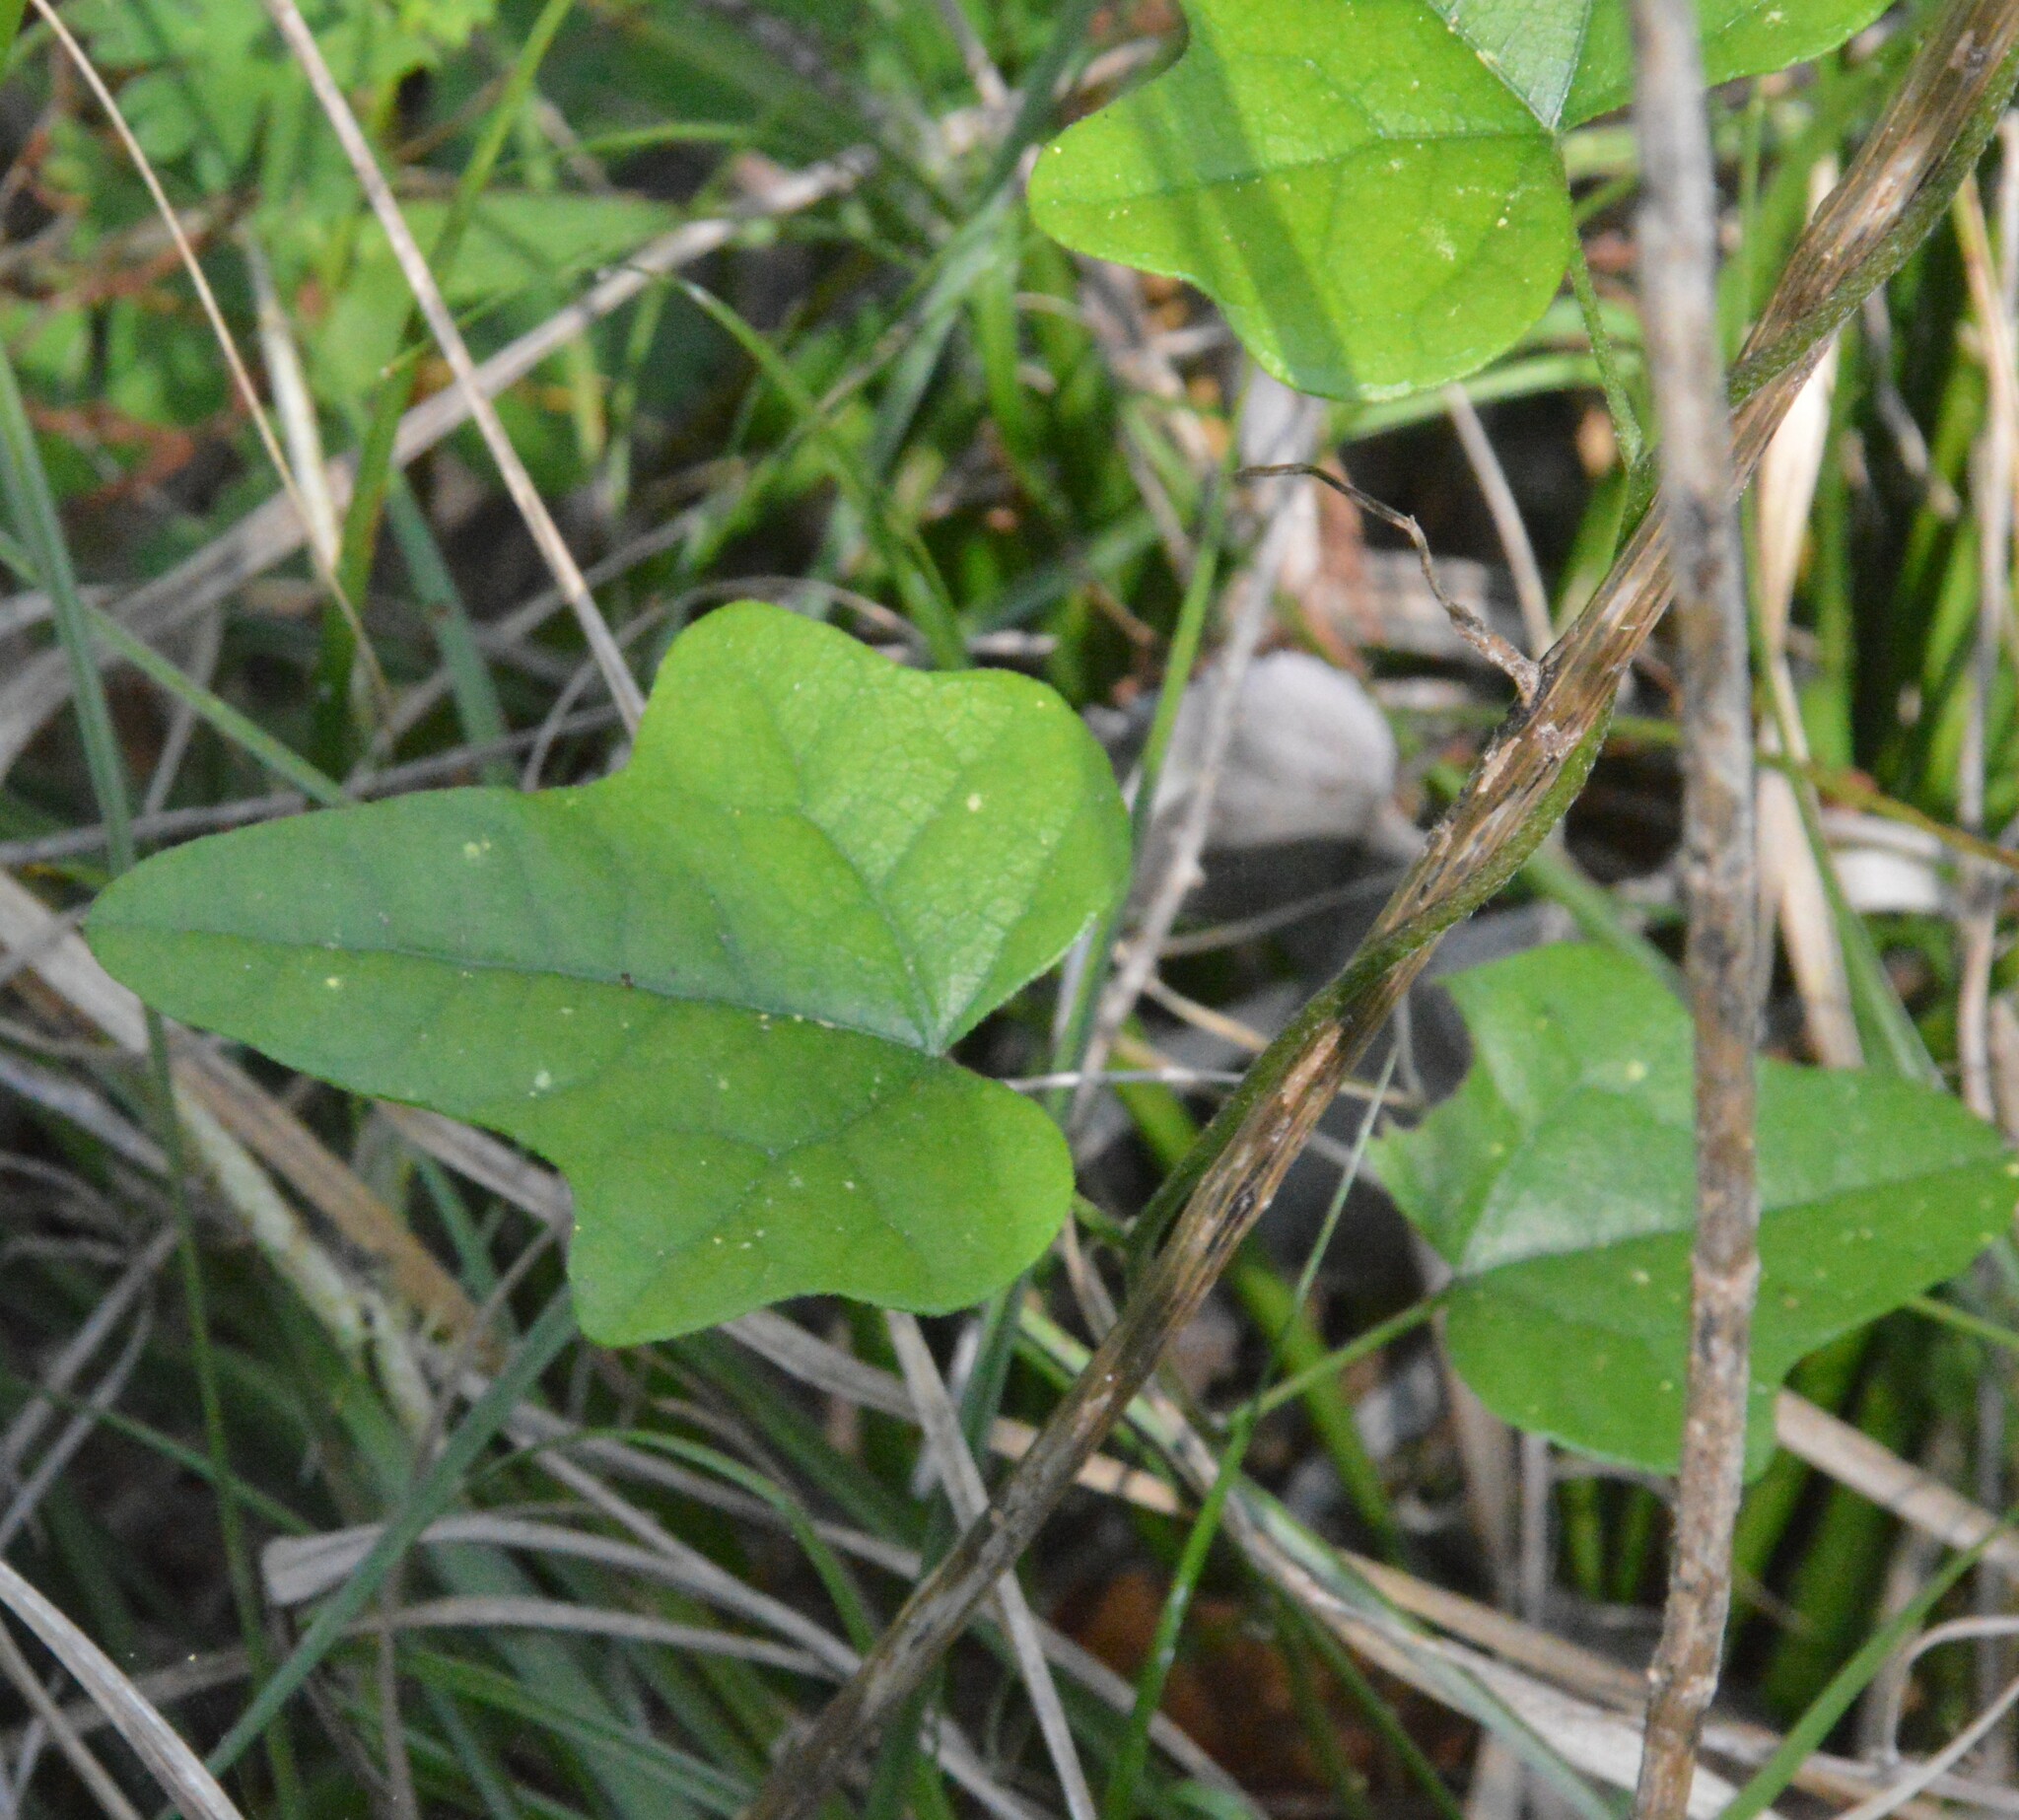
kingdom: Plantae
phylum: Tracheophyta
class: Magnoliopsida
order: Ranunculales
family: Menispermaceae
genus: Cocculus
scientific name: Cocculus carolinus
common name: Carolina moonseed
